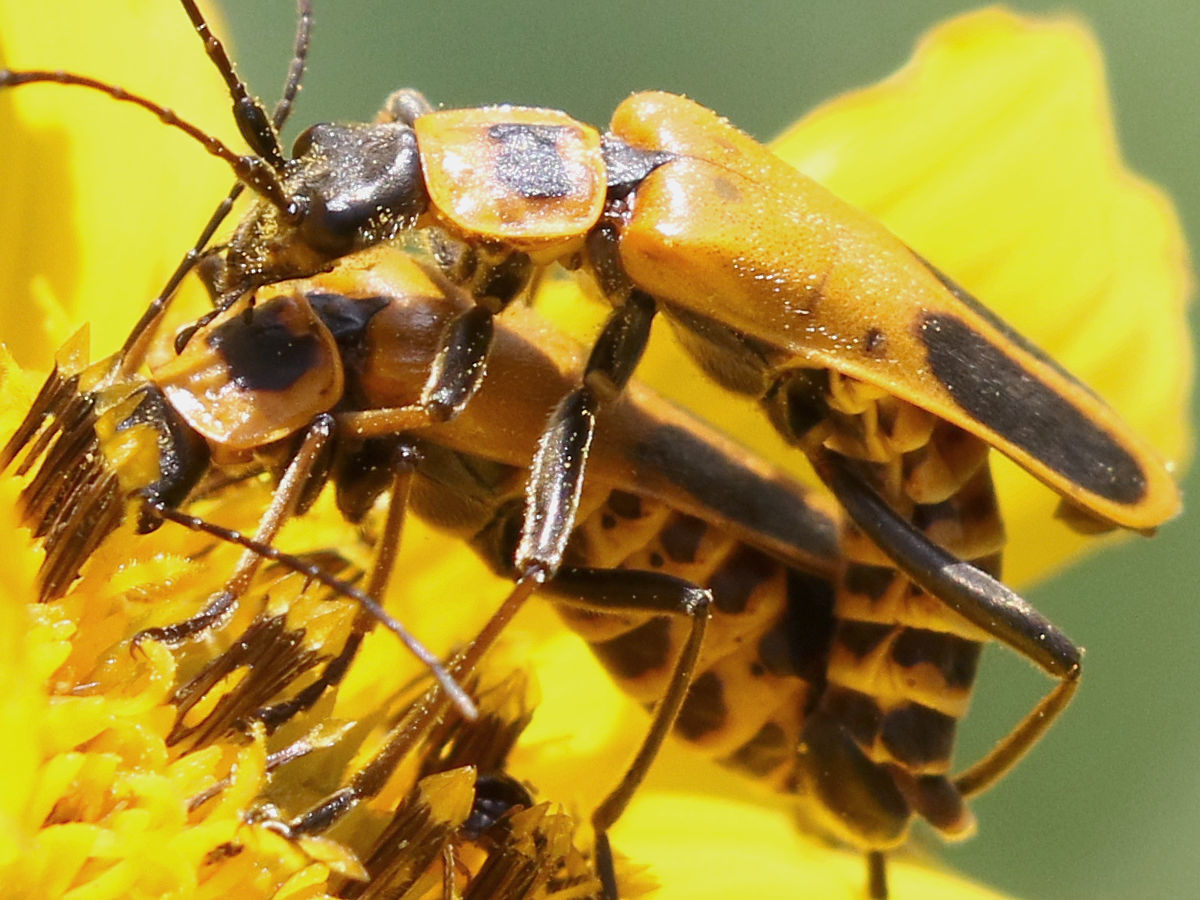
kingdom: Animalia
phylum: Arthropoda
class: Insecta
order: Coleoptera
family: Cantharidae
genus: Chauliognathus
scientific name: Chauliognathus pensylvanicus
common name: Goldenrod soldier beetle
